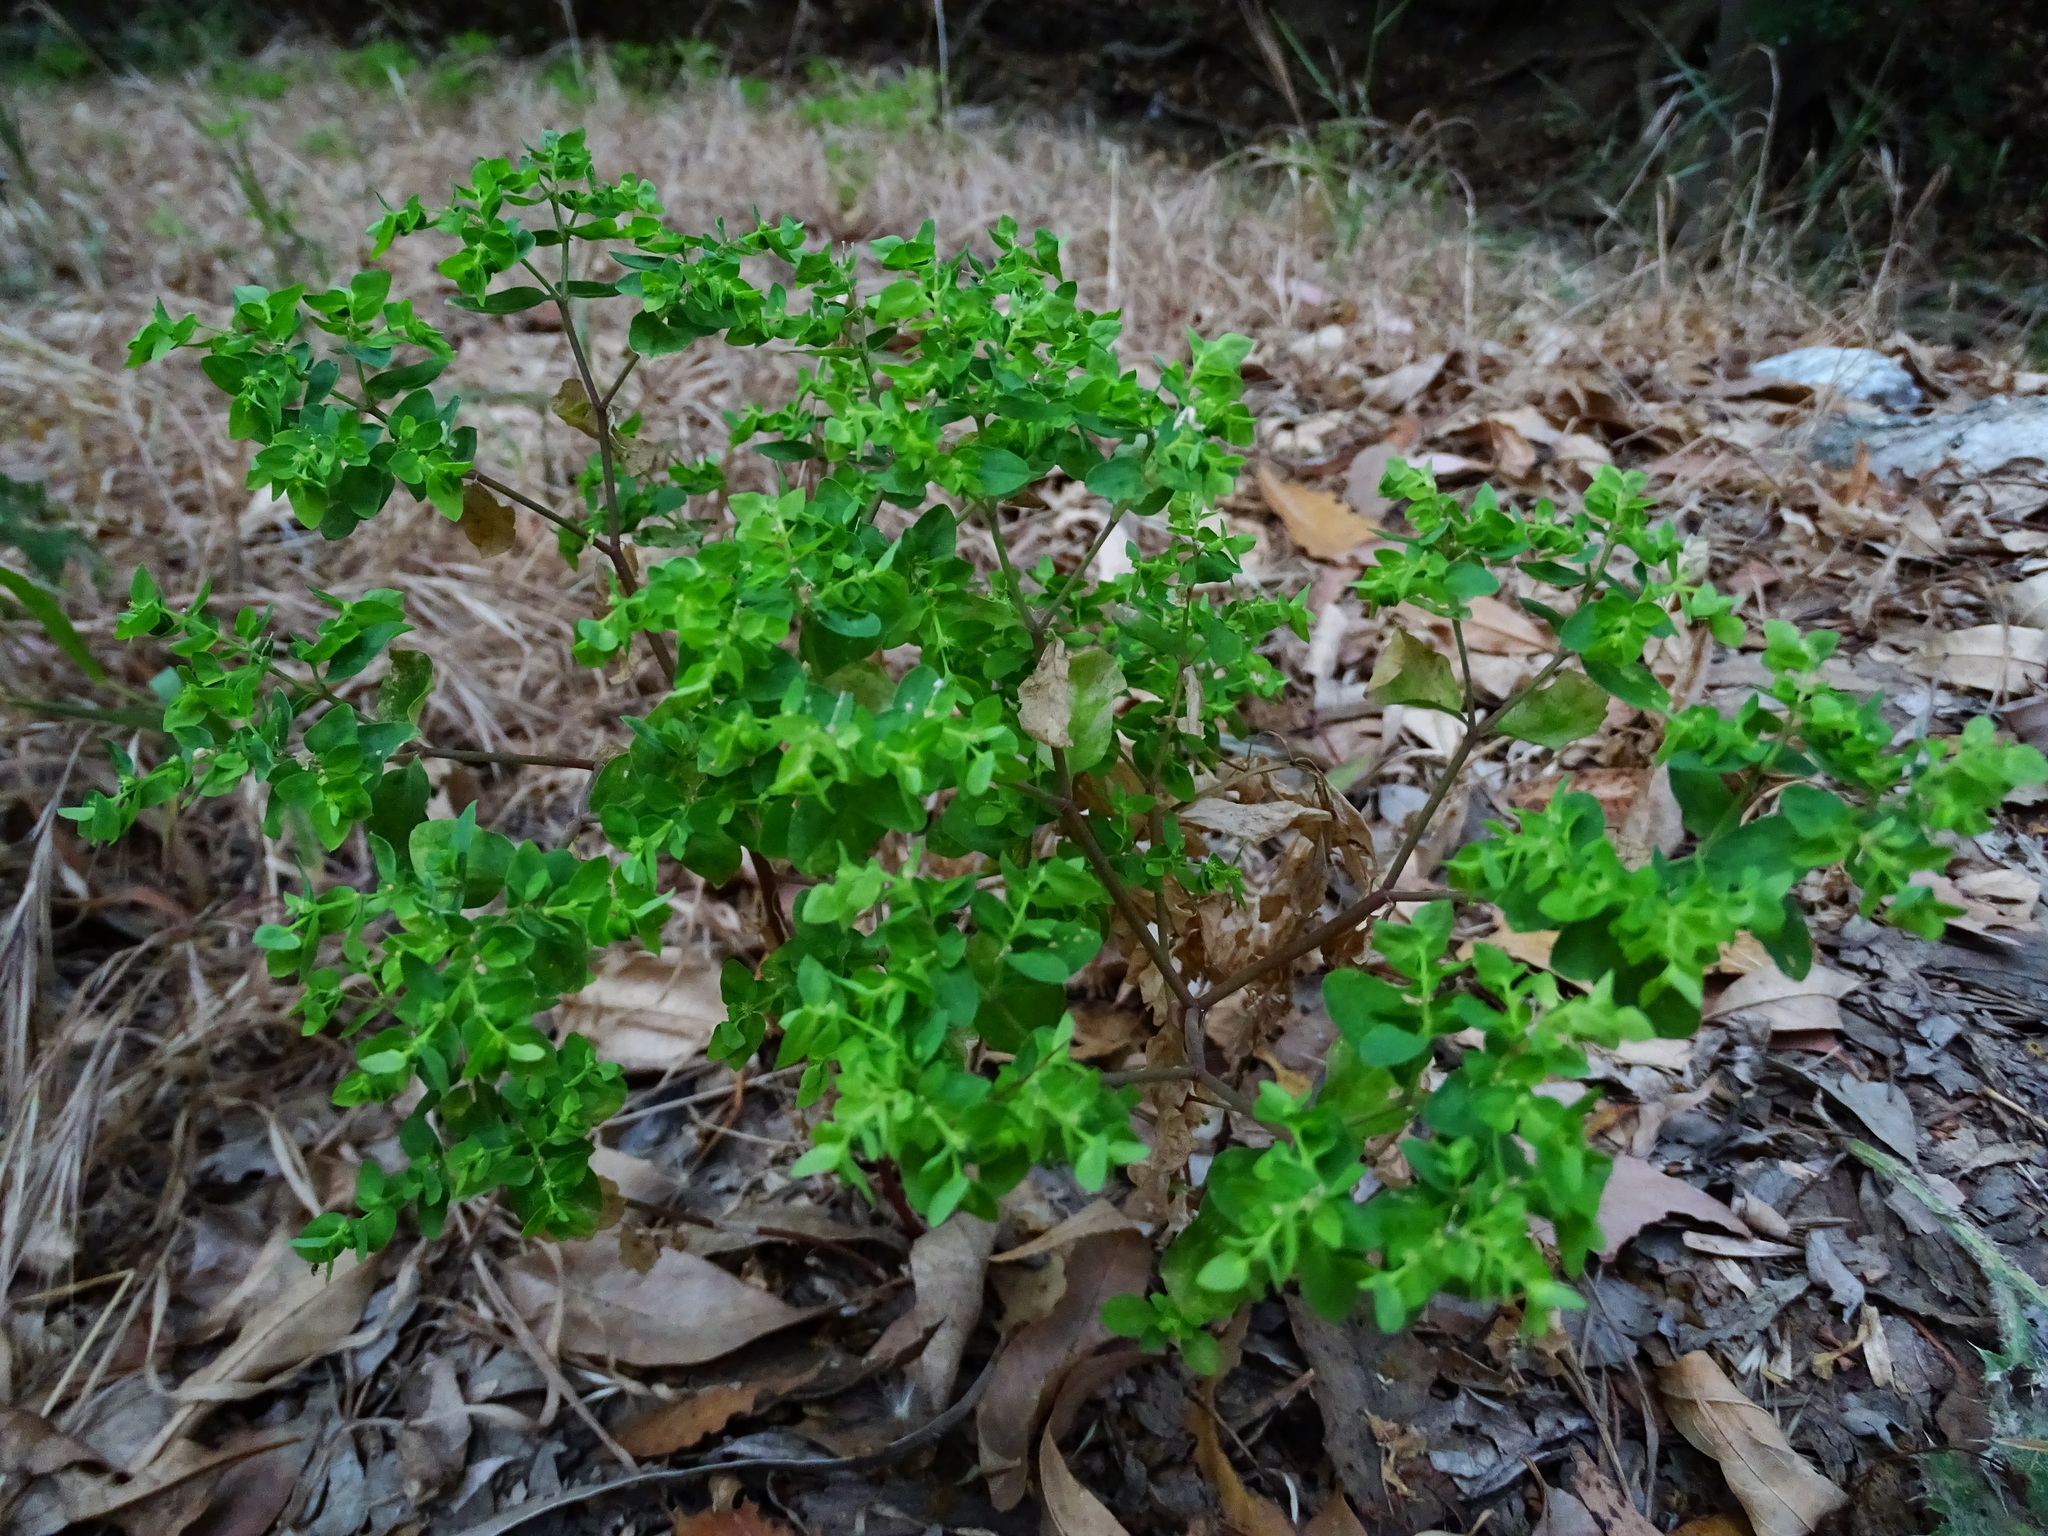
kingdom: Plantae
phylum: Tracheophyta
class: Magnoliopsida
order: Malpighiales
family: Euphorbiaceae
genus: Euphorbia
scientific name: Euphorbia peplus
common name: Petty spurge
